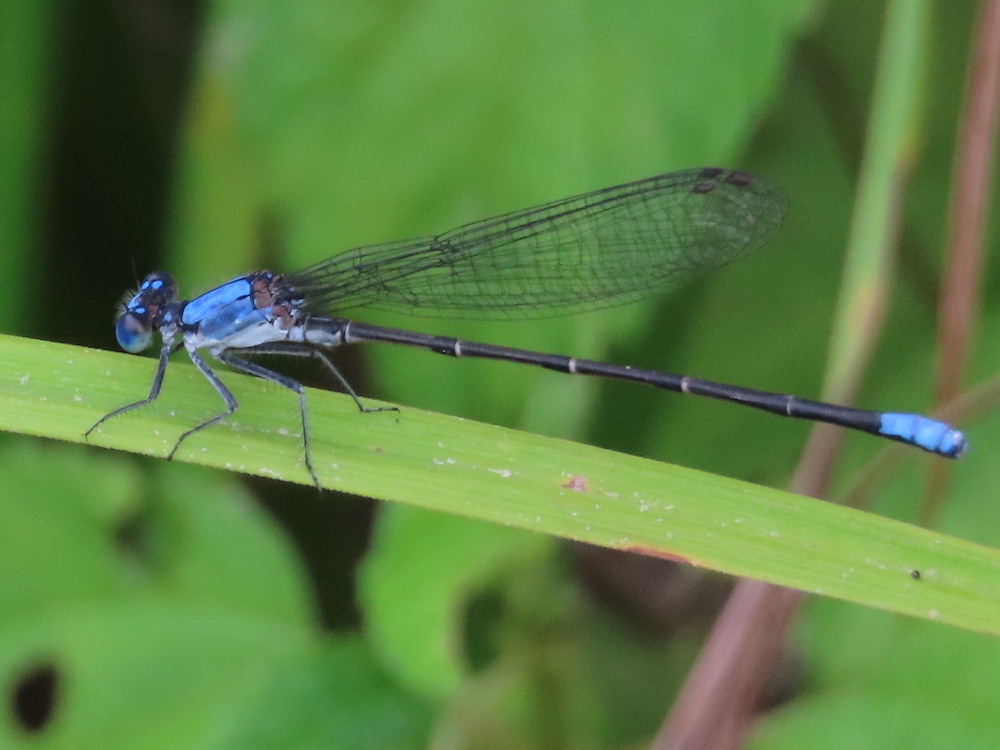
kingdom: Animalia
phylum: Arthropoda
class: Insecta
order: Odonata
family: Coenagrionidae
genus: Argia
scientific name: Argia apicalis
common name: Blue-fronted dancer
